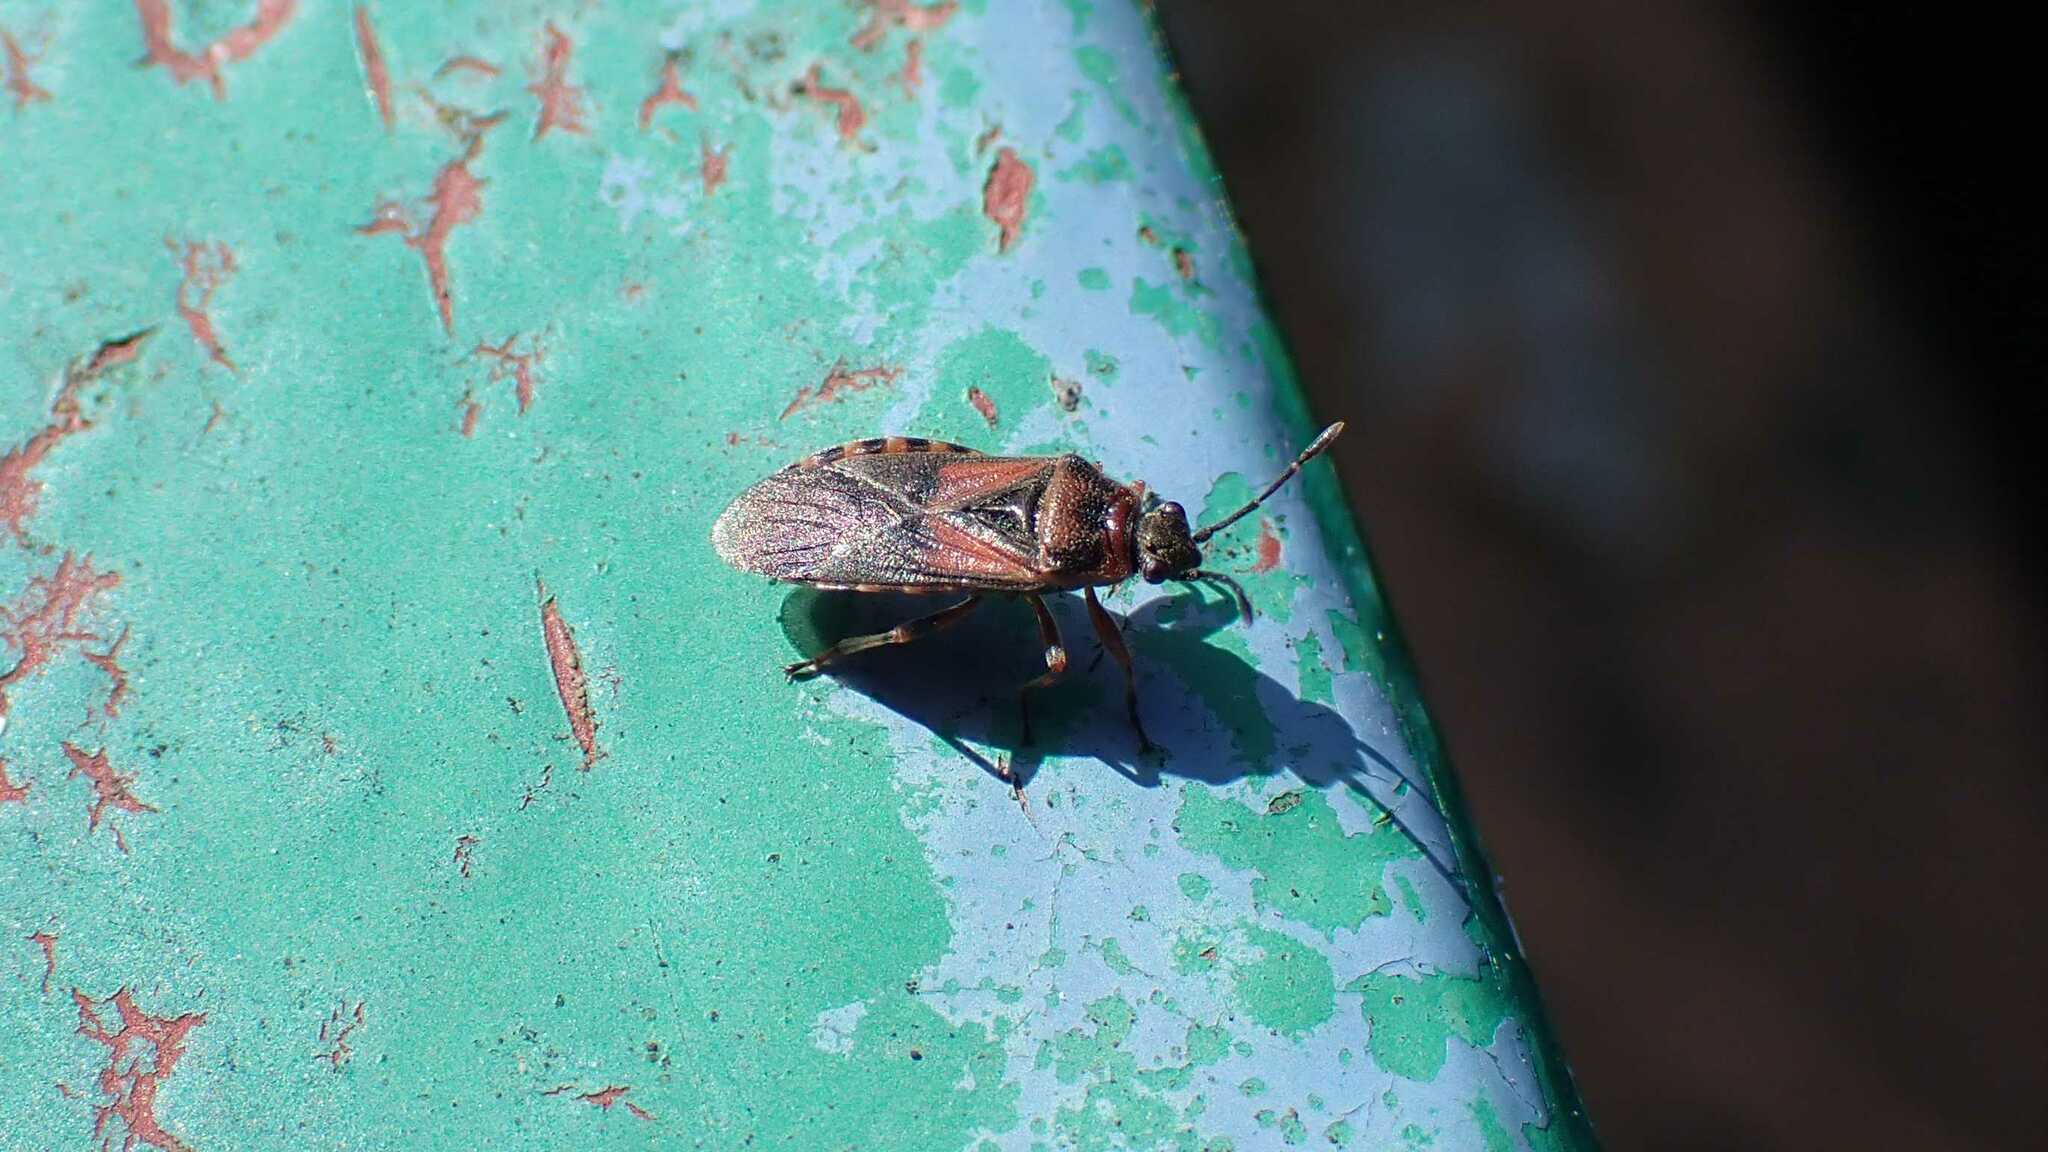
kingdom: Animalia
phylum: Arthropoda
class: Insecta
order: Hemiptera
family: Lygaeidae
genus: Arocatus
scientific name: Arocatus melanocephalus
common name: Lygaeid bug
